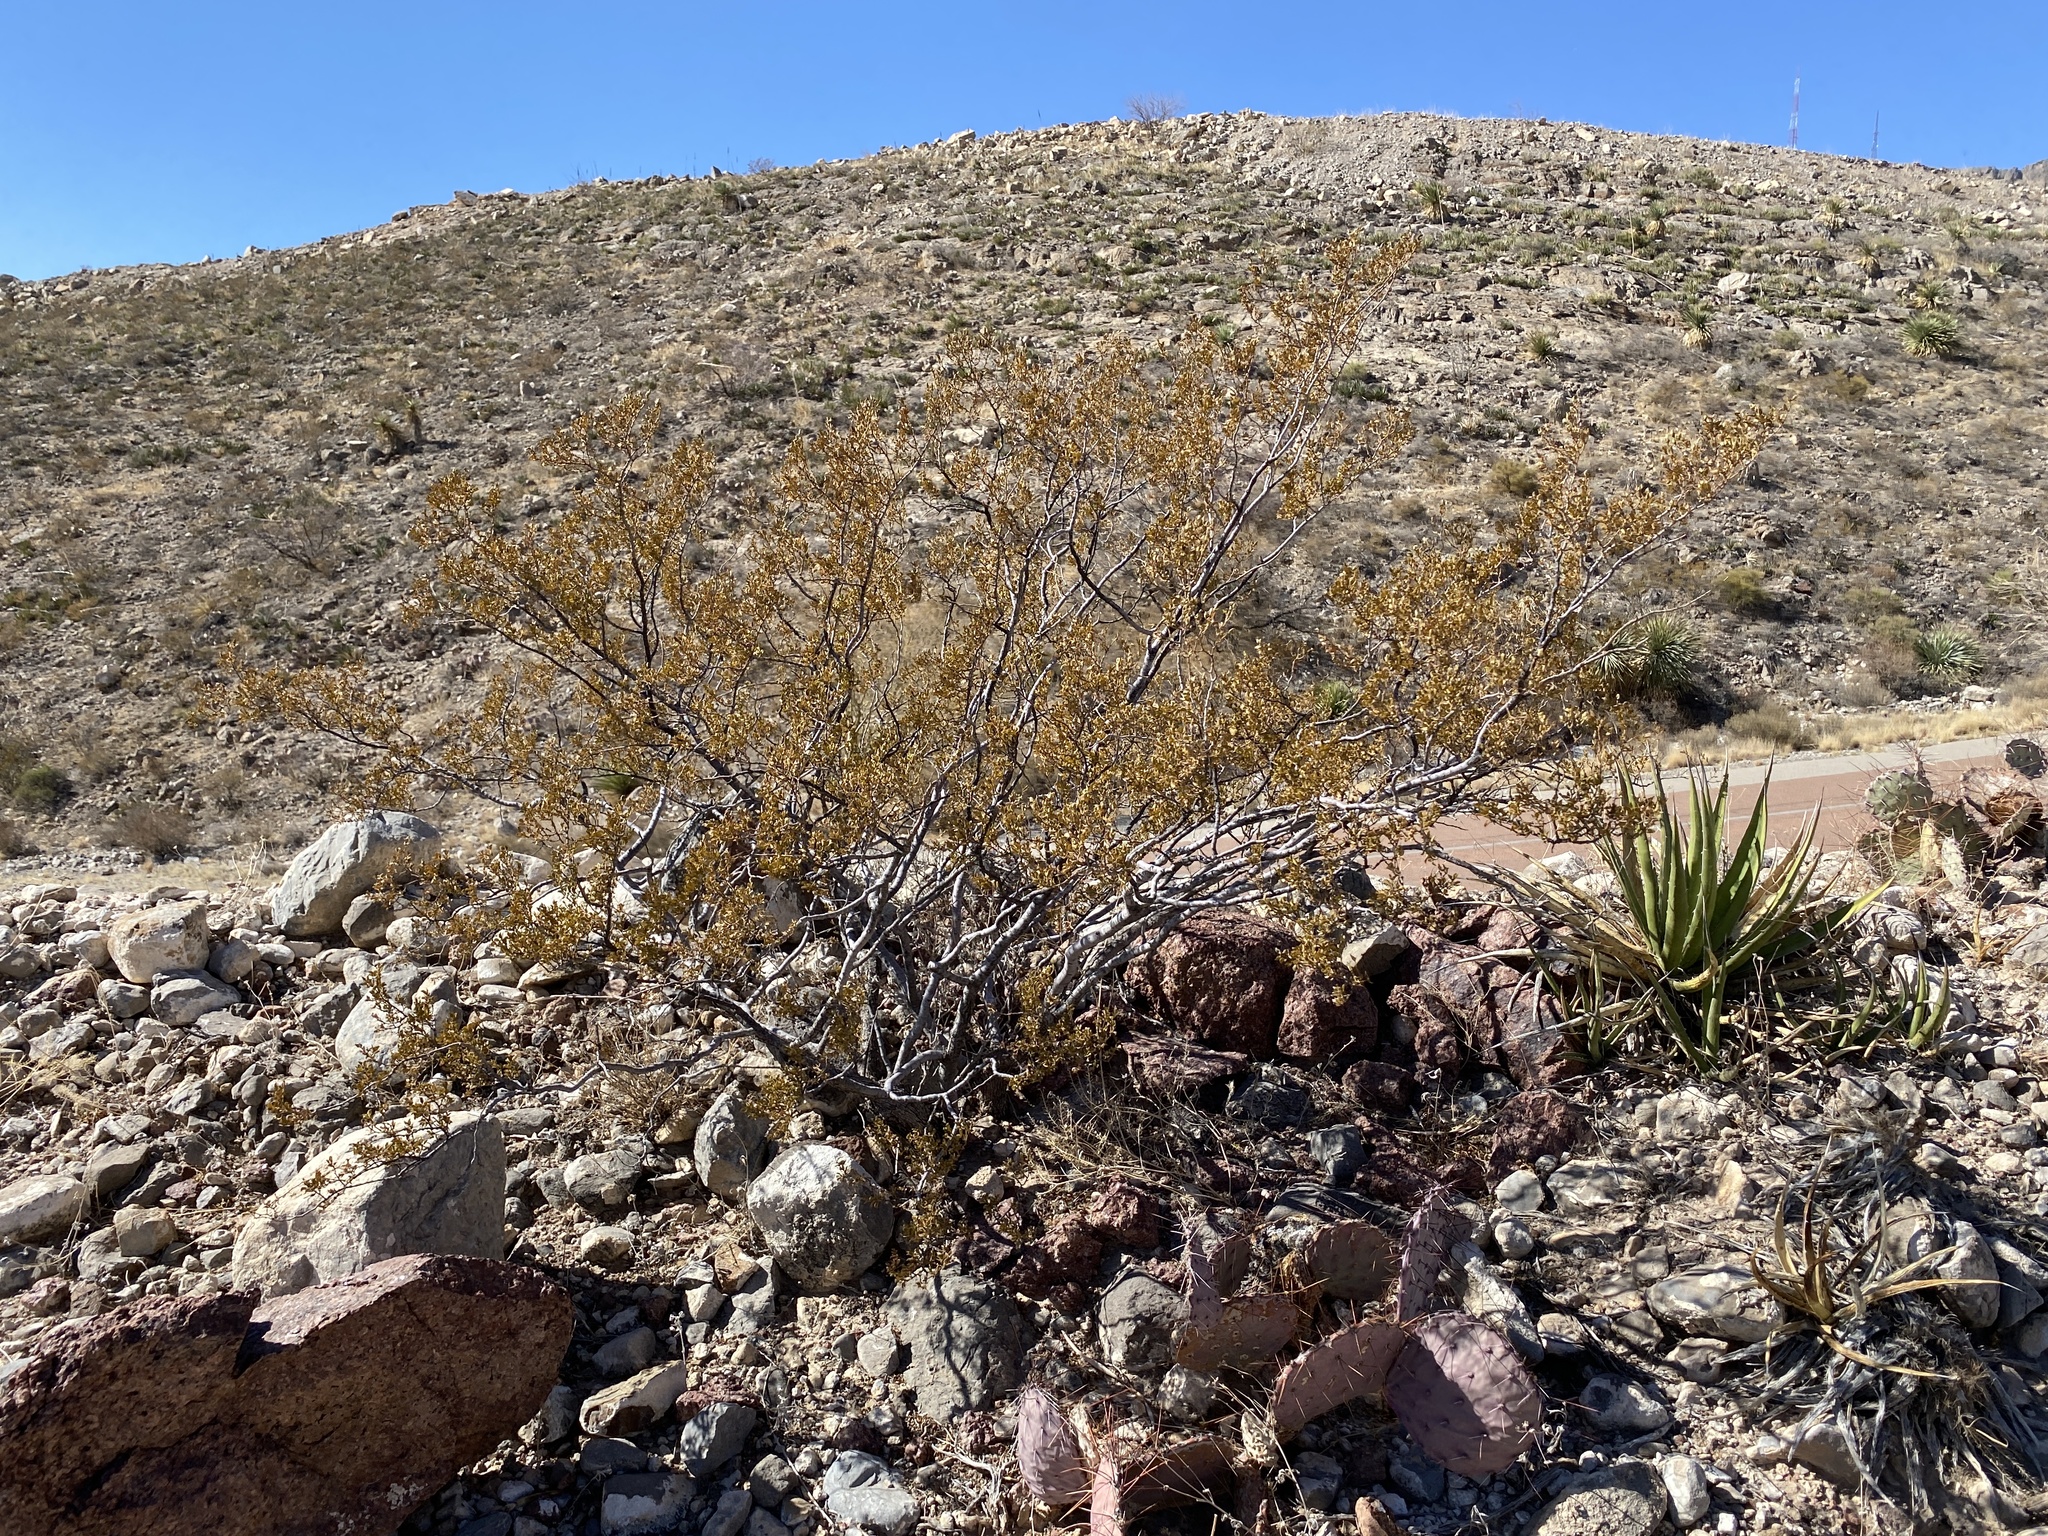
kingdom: Plantae
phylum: Tracheophyta
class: Magnoliopsida
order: Zygophyllales
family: Zygophyllaceae
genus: Larrea
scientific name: Larrea tridentata
